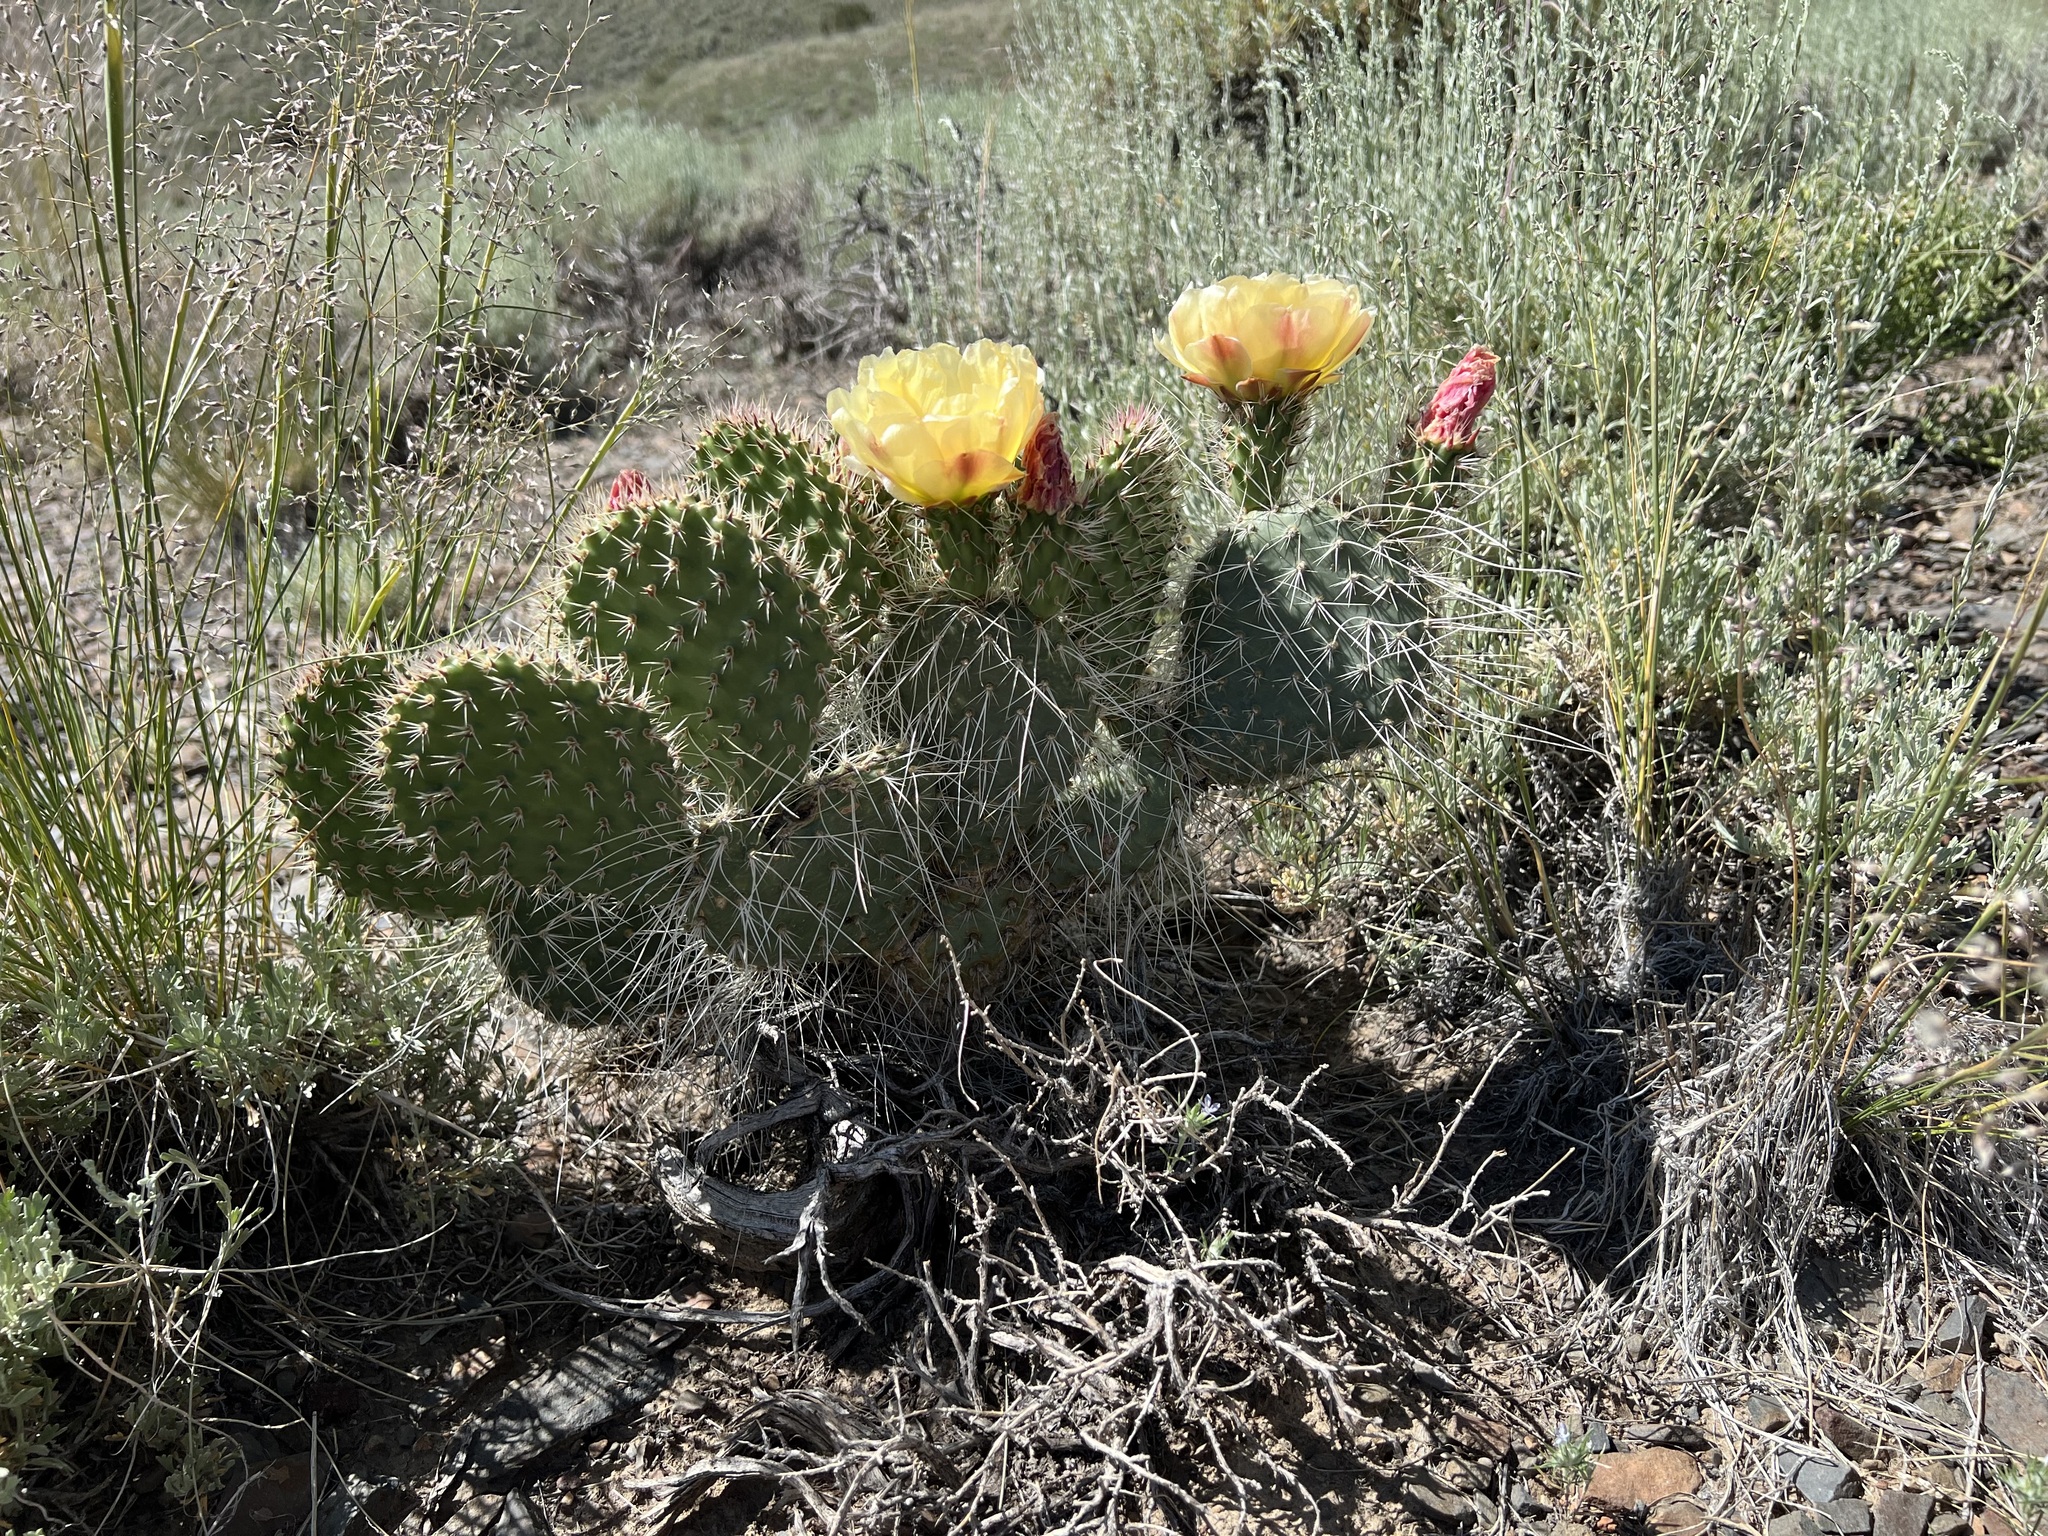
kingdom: Plantae
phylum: Tracheophyta
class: Magnoliopsida
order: Caryophyllales
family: Cactaceae
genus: Opuntia
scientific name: Opuntia polyacantha
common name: Plains prickly-pear
